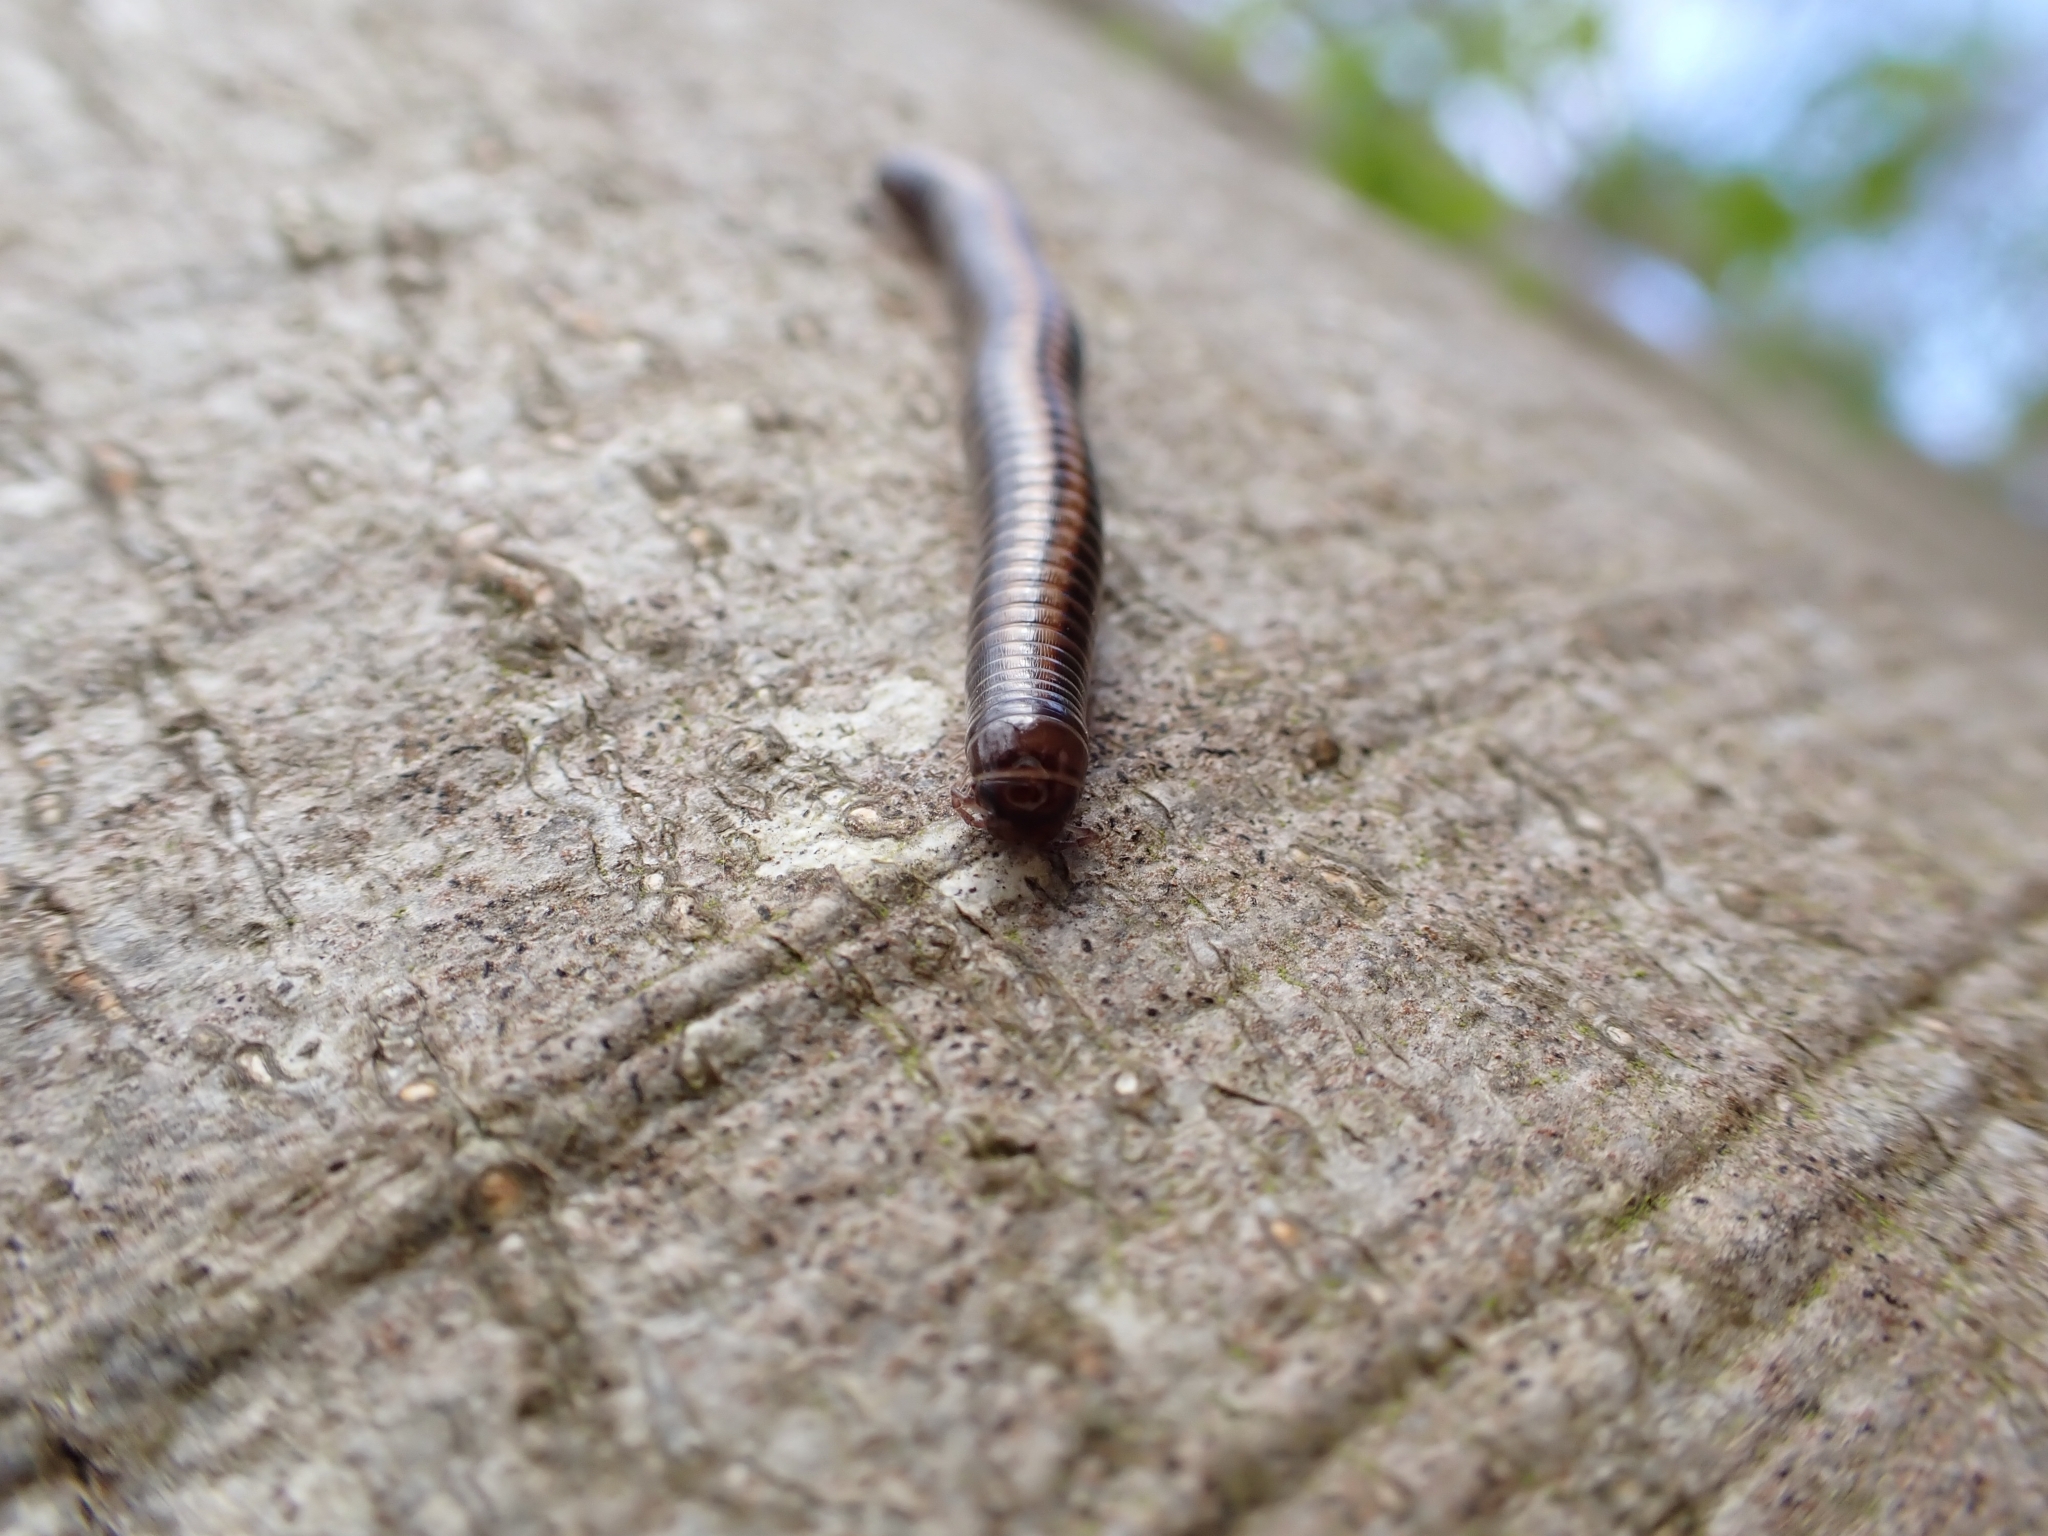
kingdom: Animalia
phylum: Arthropoda
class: Diplopoda
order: Julida
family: Julidae
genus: Ommatoiulus
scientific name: Ommatoiulus sabulosus
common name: Striped millipede
